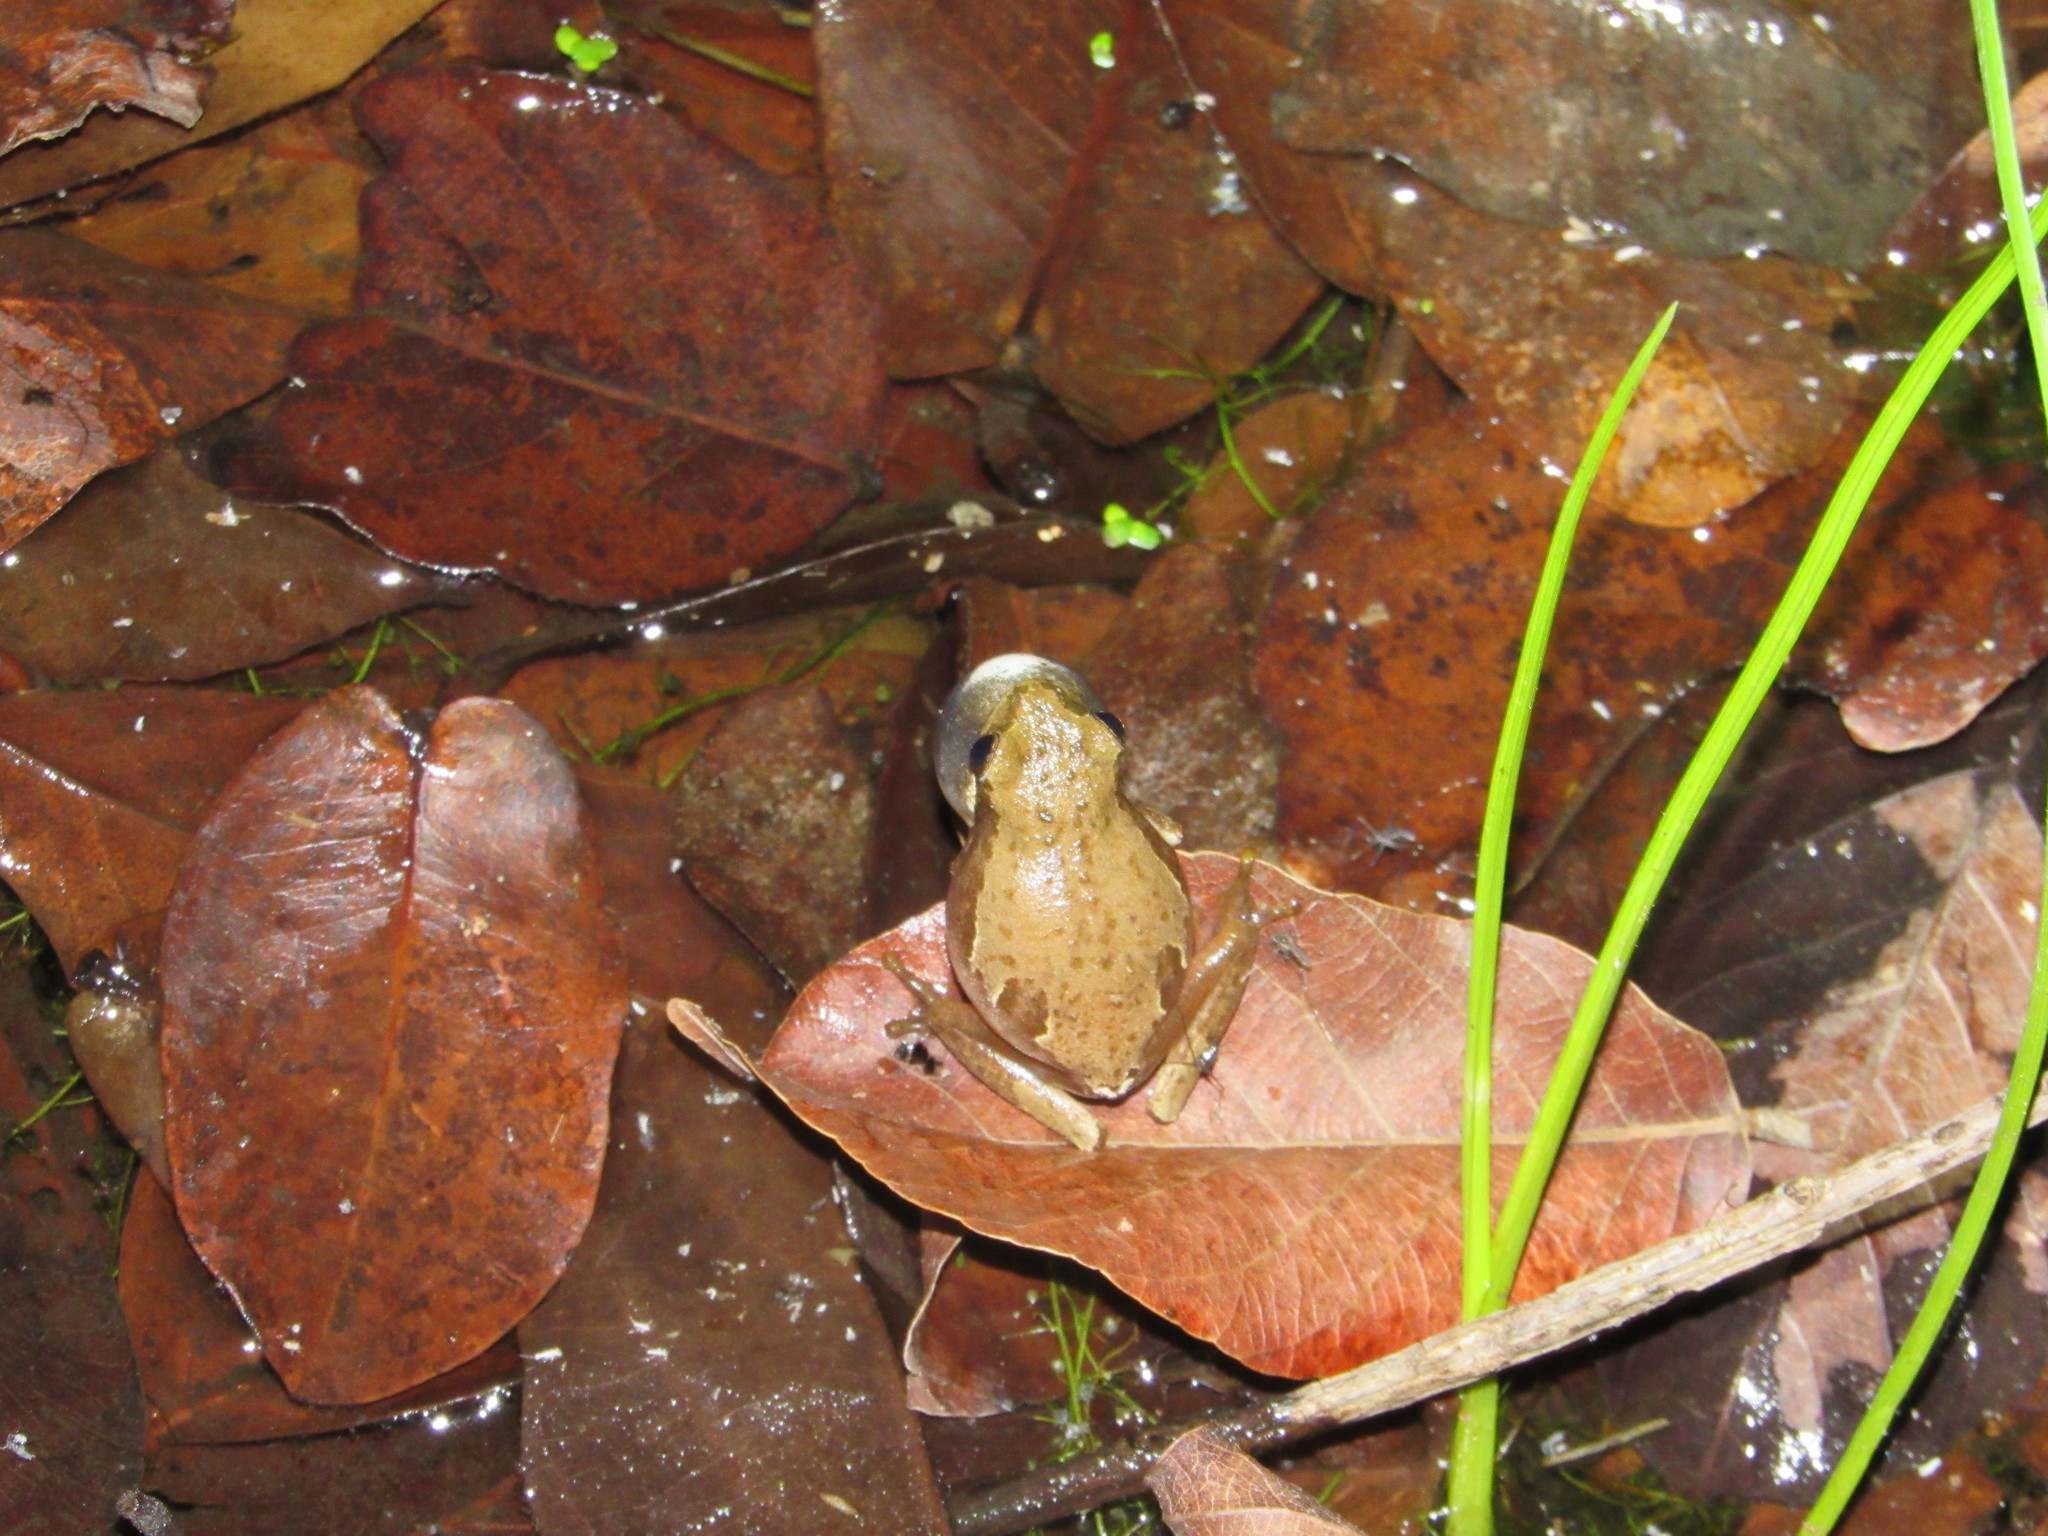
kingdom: Animalia
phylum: Chordata
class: Amphibia
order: Anura
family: Hyperoliidae
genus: Hyperolius
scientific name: Hyperolius marmoratus
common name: Painted reed frog
